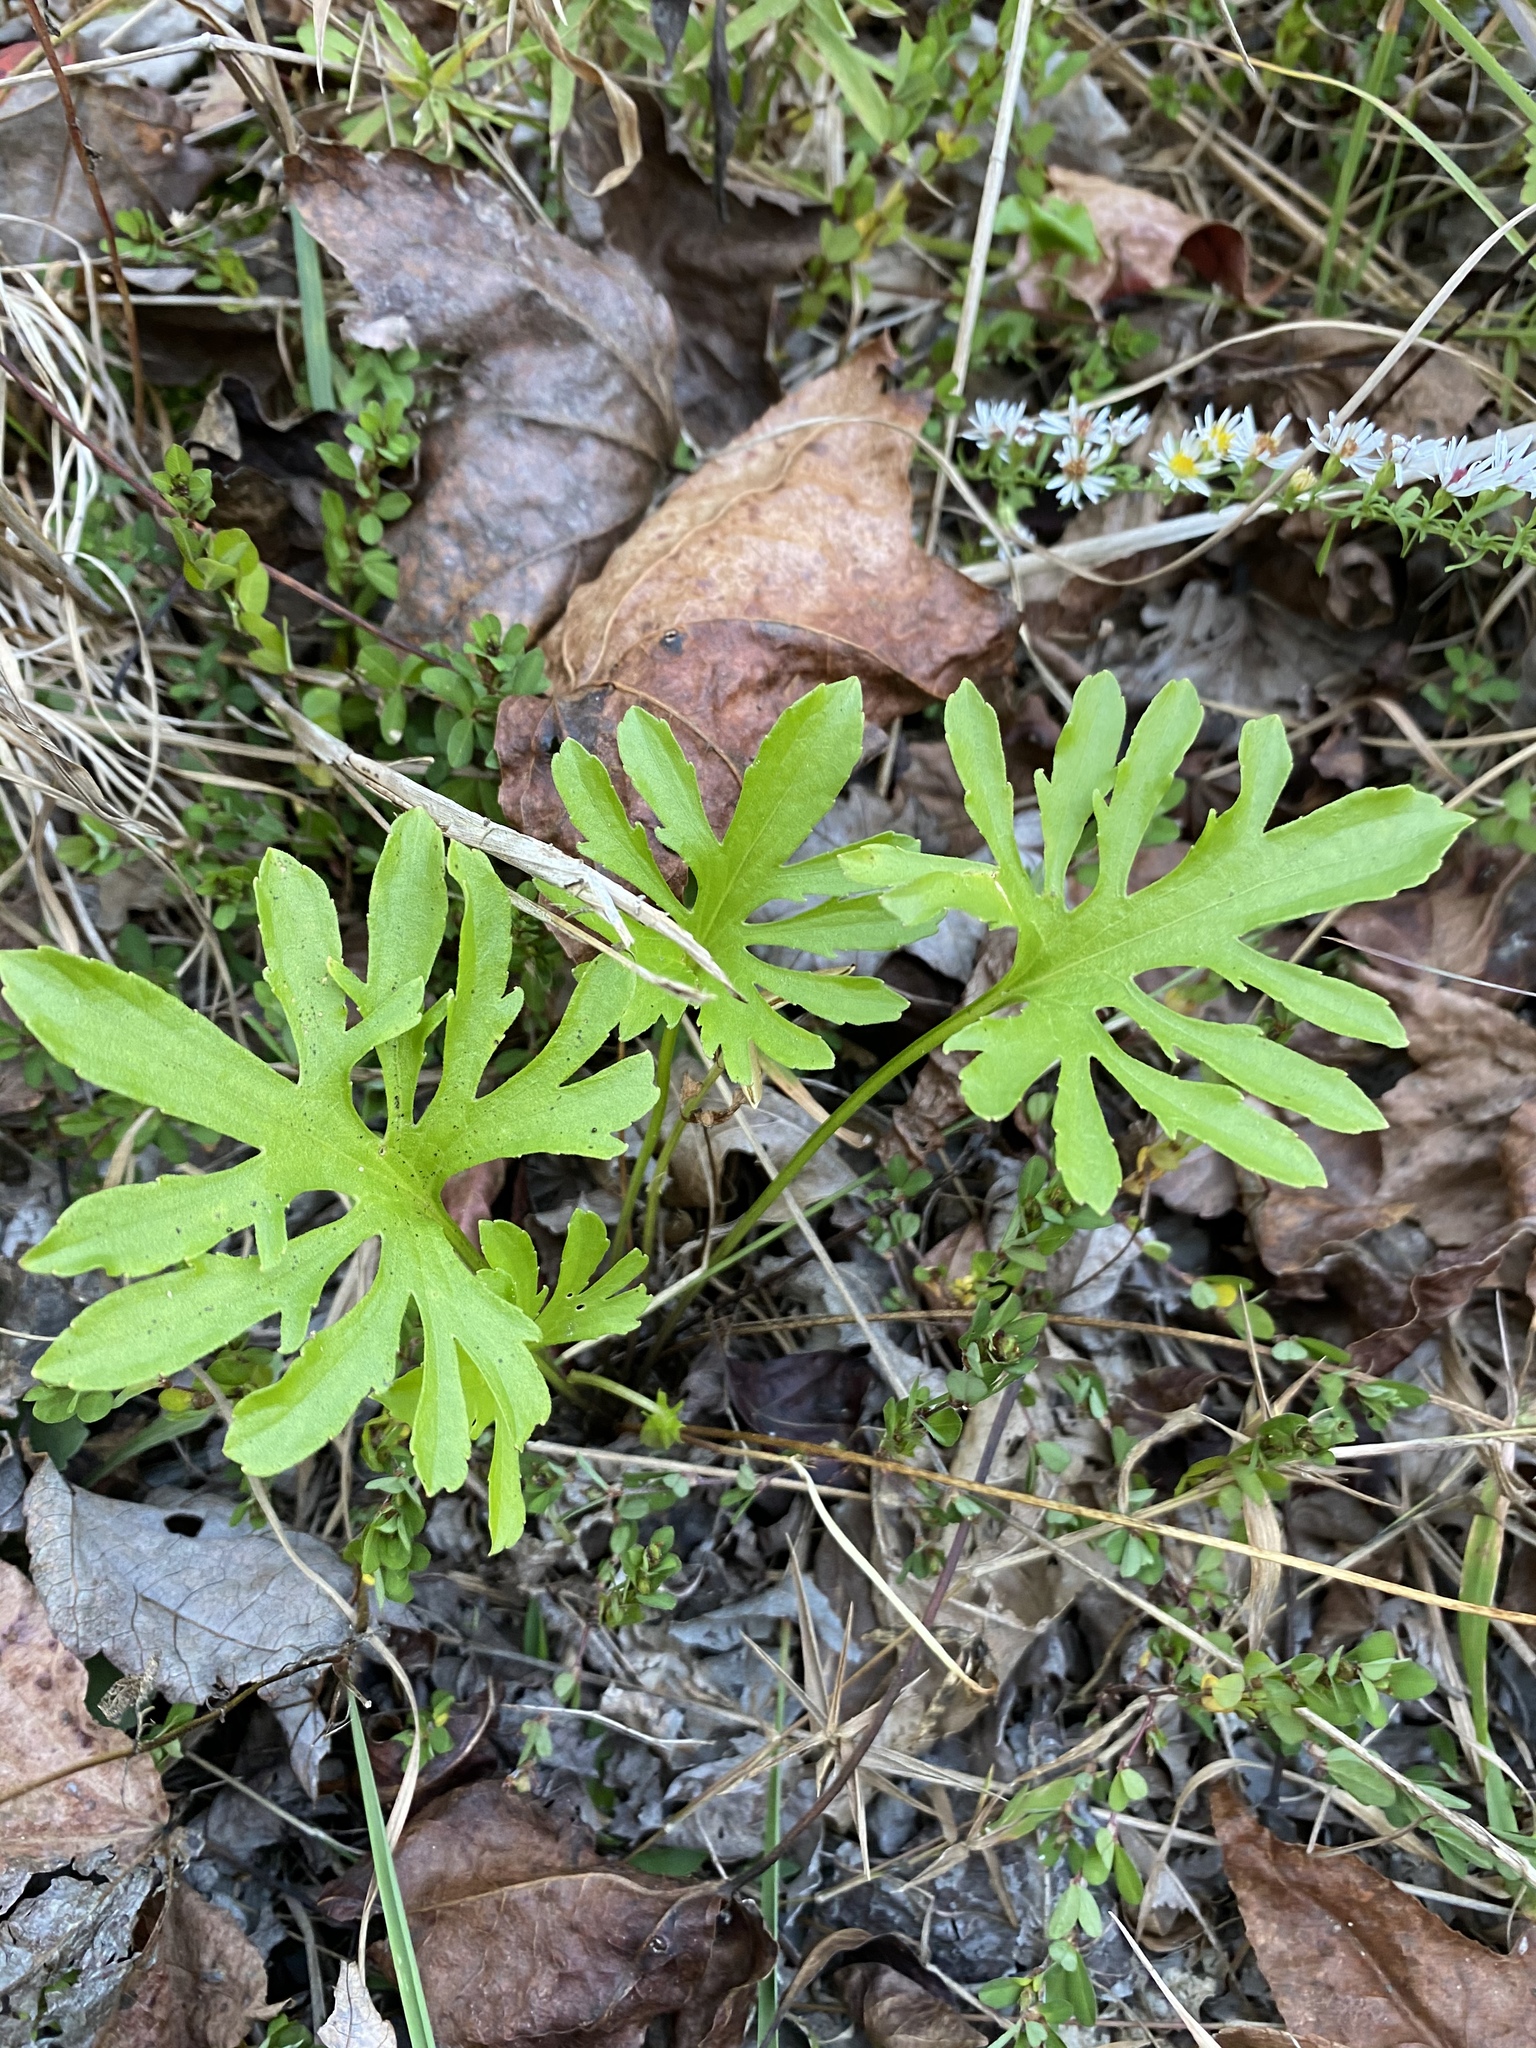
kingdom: Plantae
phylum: Tracheophyta
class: Magnoliopsida
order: Malpighiales
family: Violaceae
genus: Viola
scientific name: Viola brittoniana
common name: Northern coastal violet
